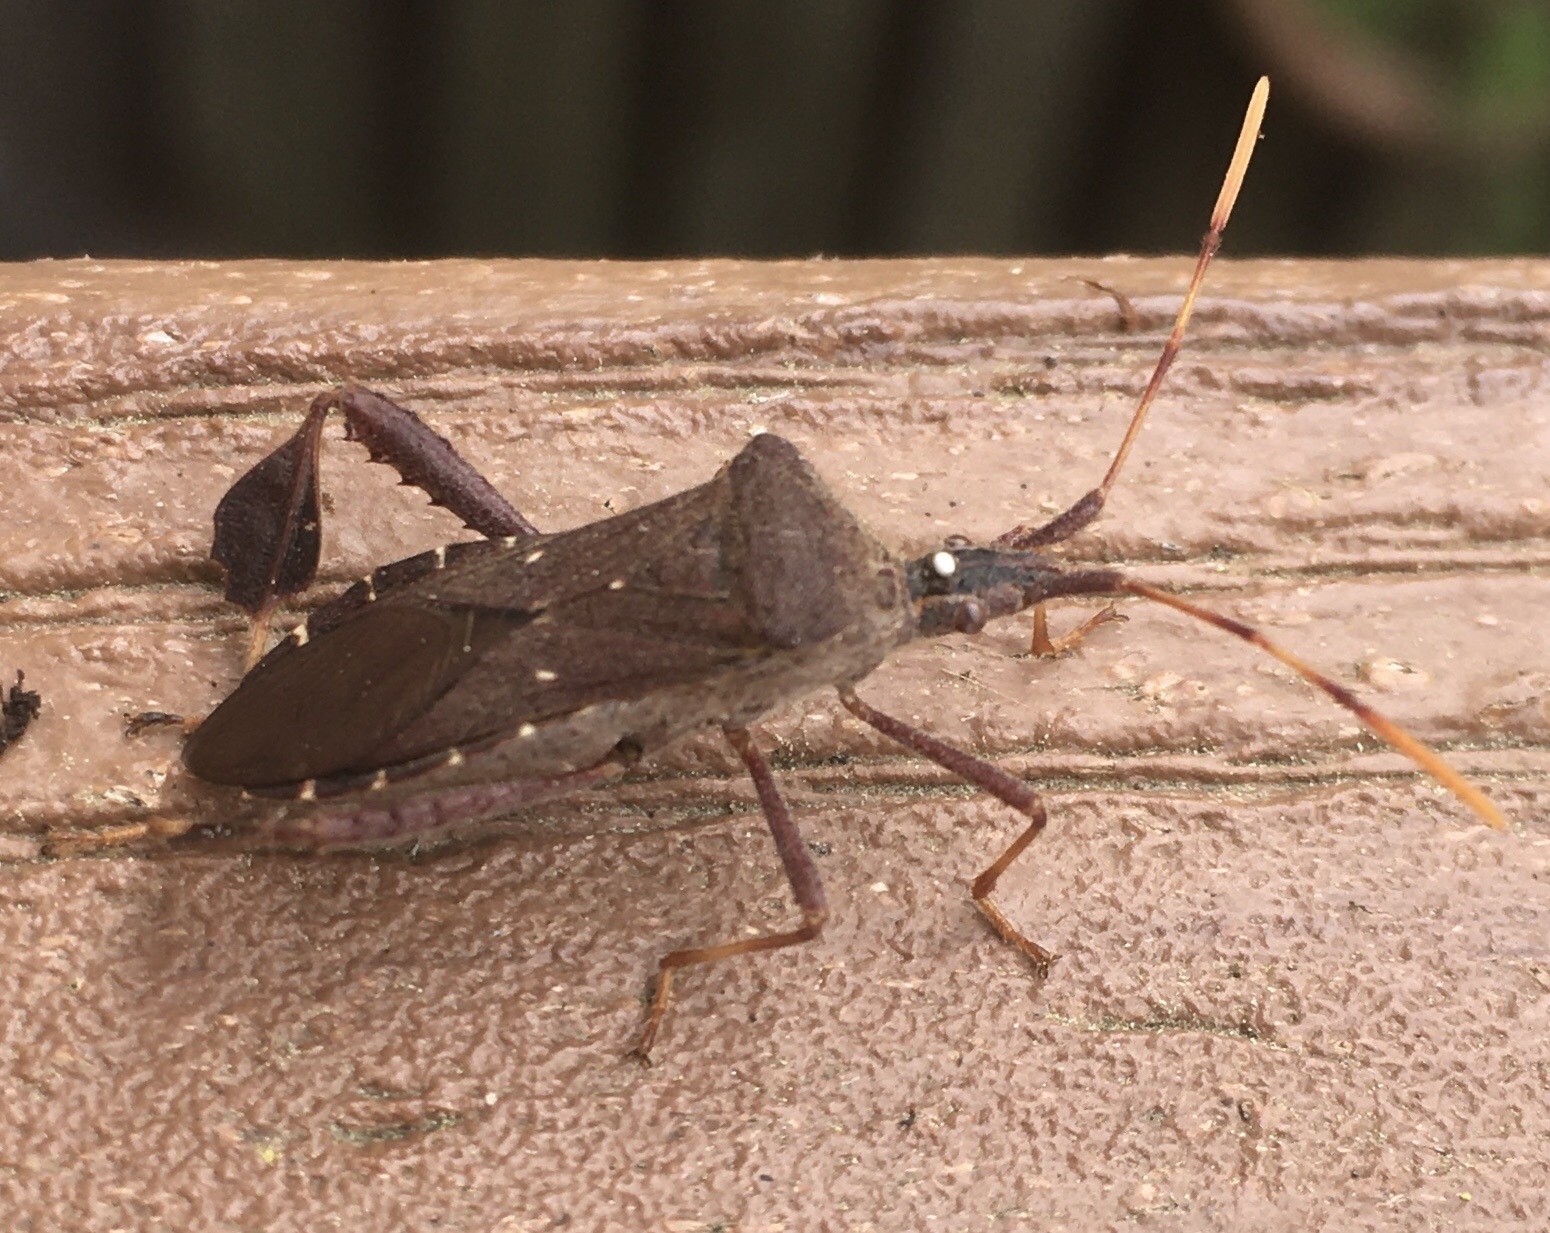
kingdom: Animalia
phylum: Arthropoda
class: Insecta
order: Hemiptera
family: Coreidae
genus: Leptoglossus
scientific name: Leptoglossus oppositus
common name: Northern leaf-footed bug
